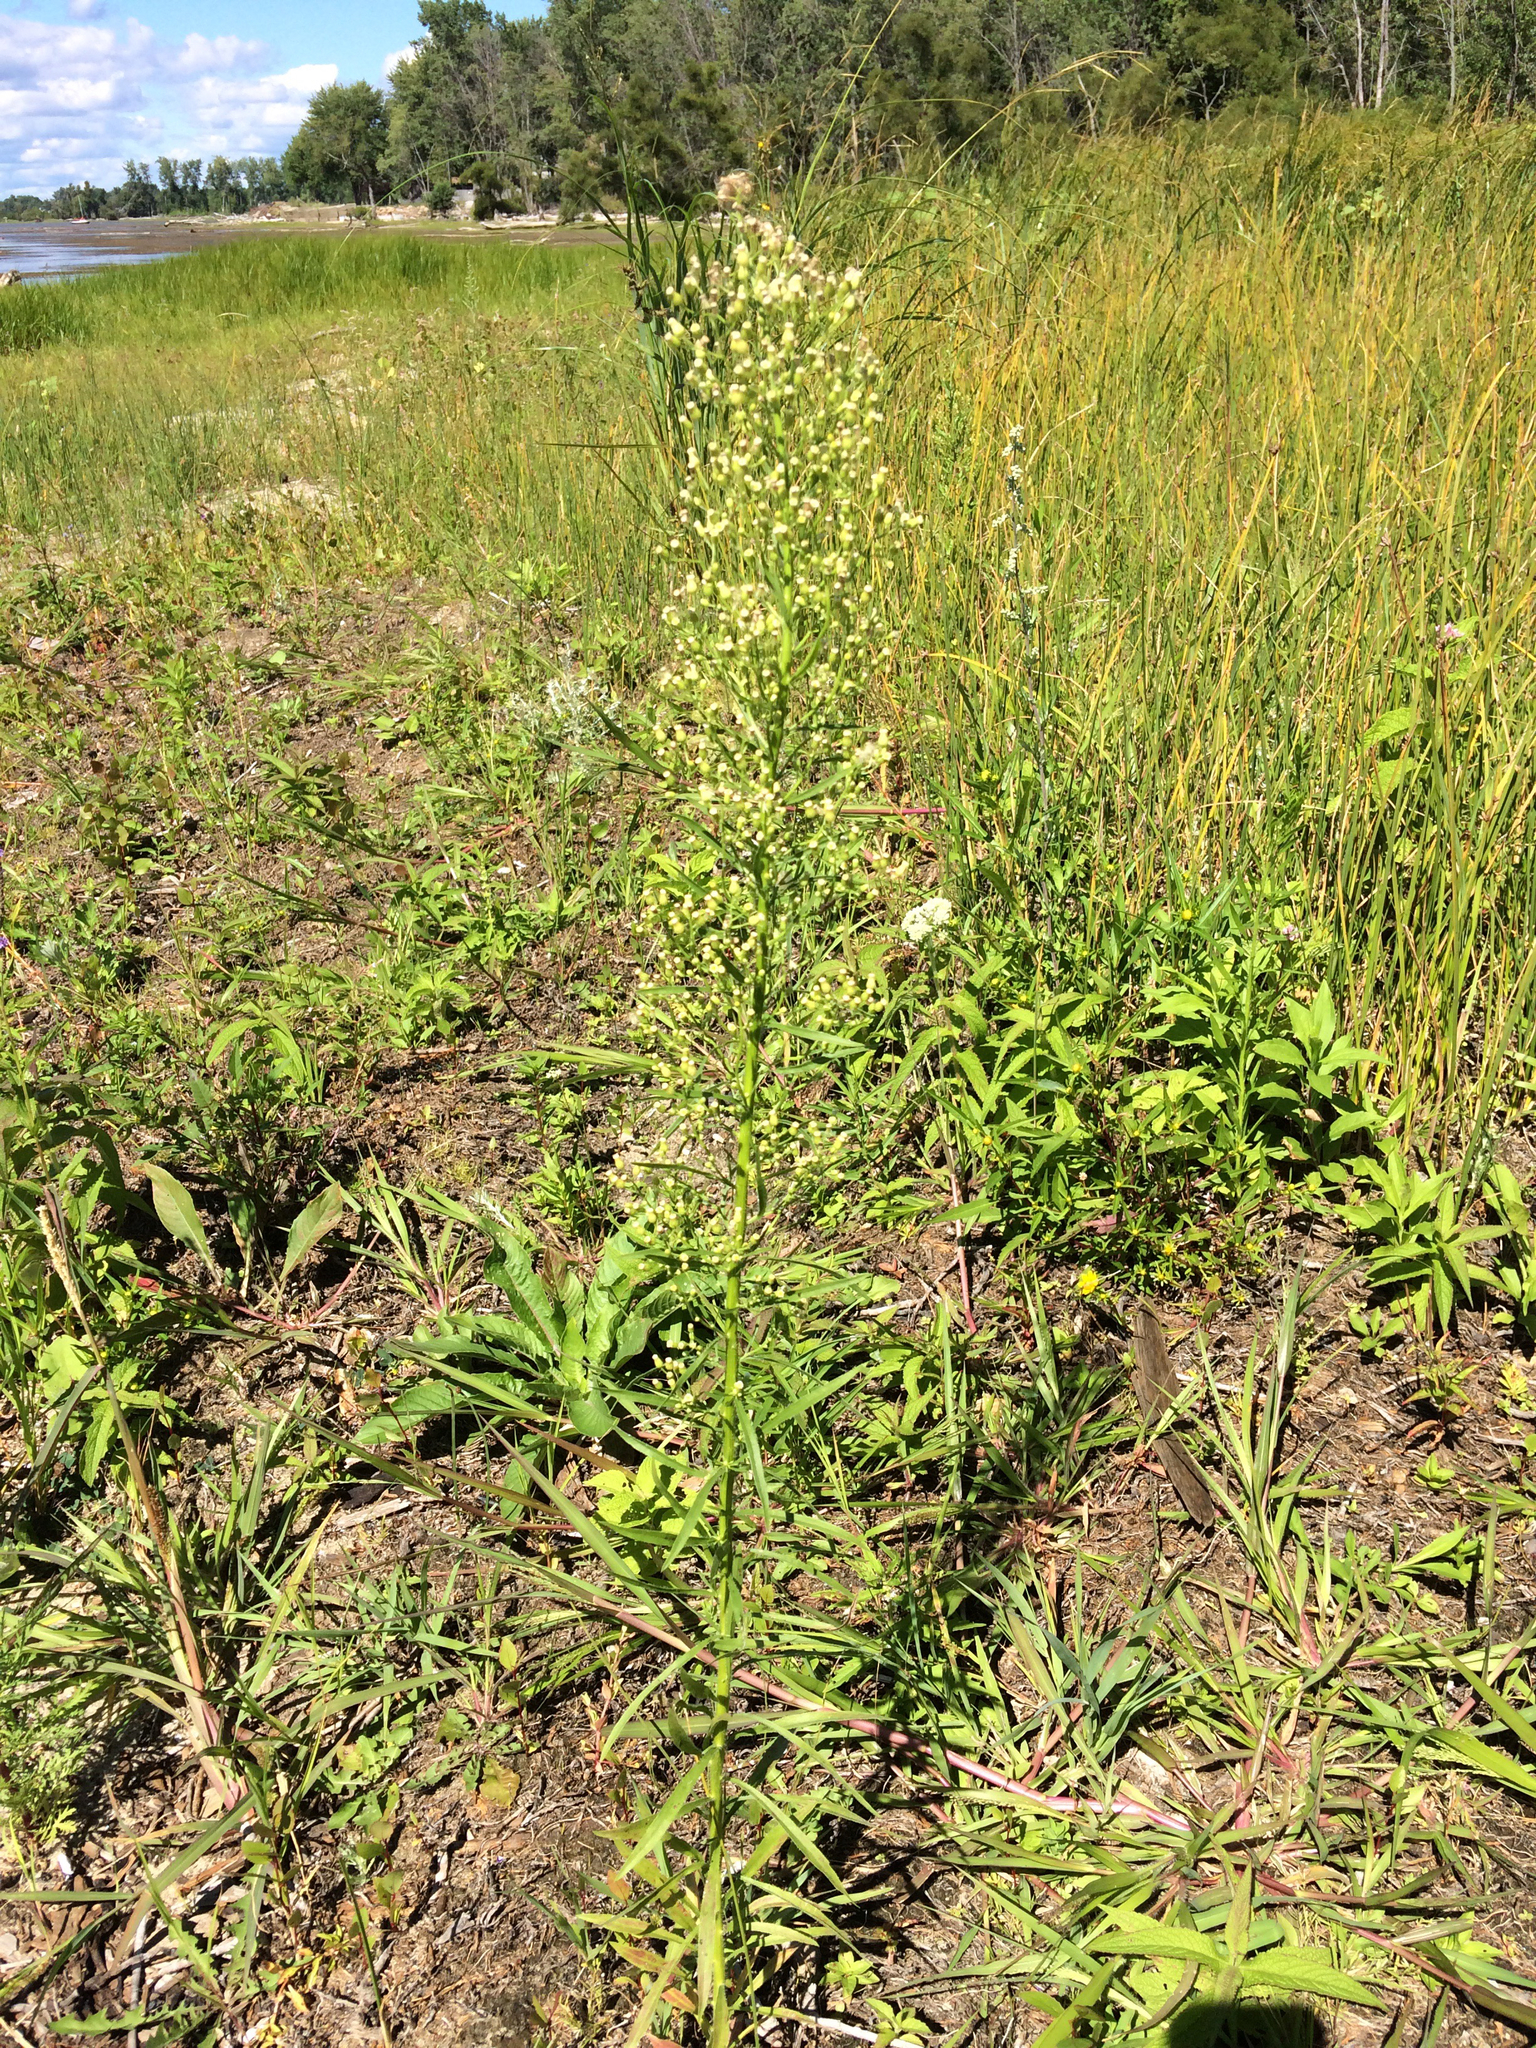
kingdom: Plantae
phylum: Tracheophyta
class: Magnoliopsida
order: Asterales
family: Asteraceae
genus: Erigeron
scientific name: Erigeron canadensis
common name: Canadian fleabane
